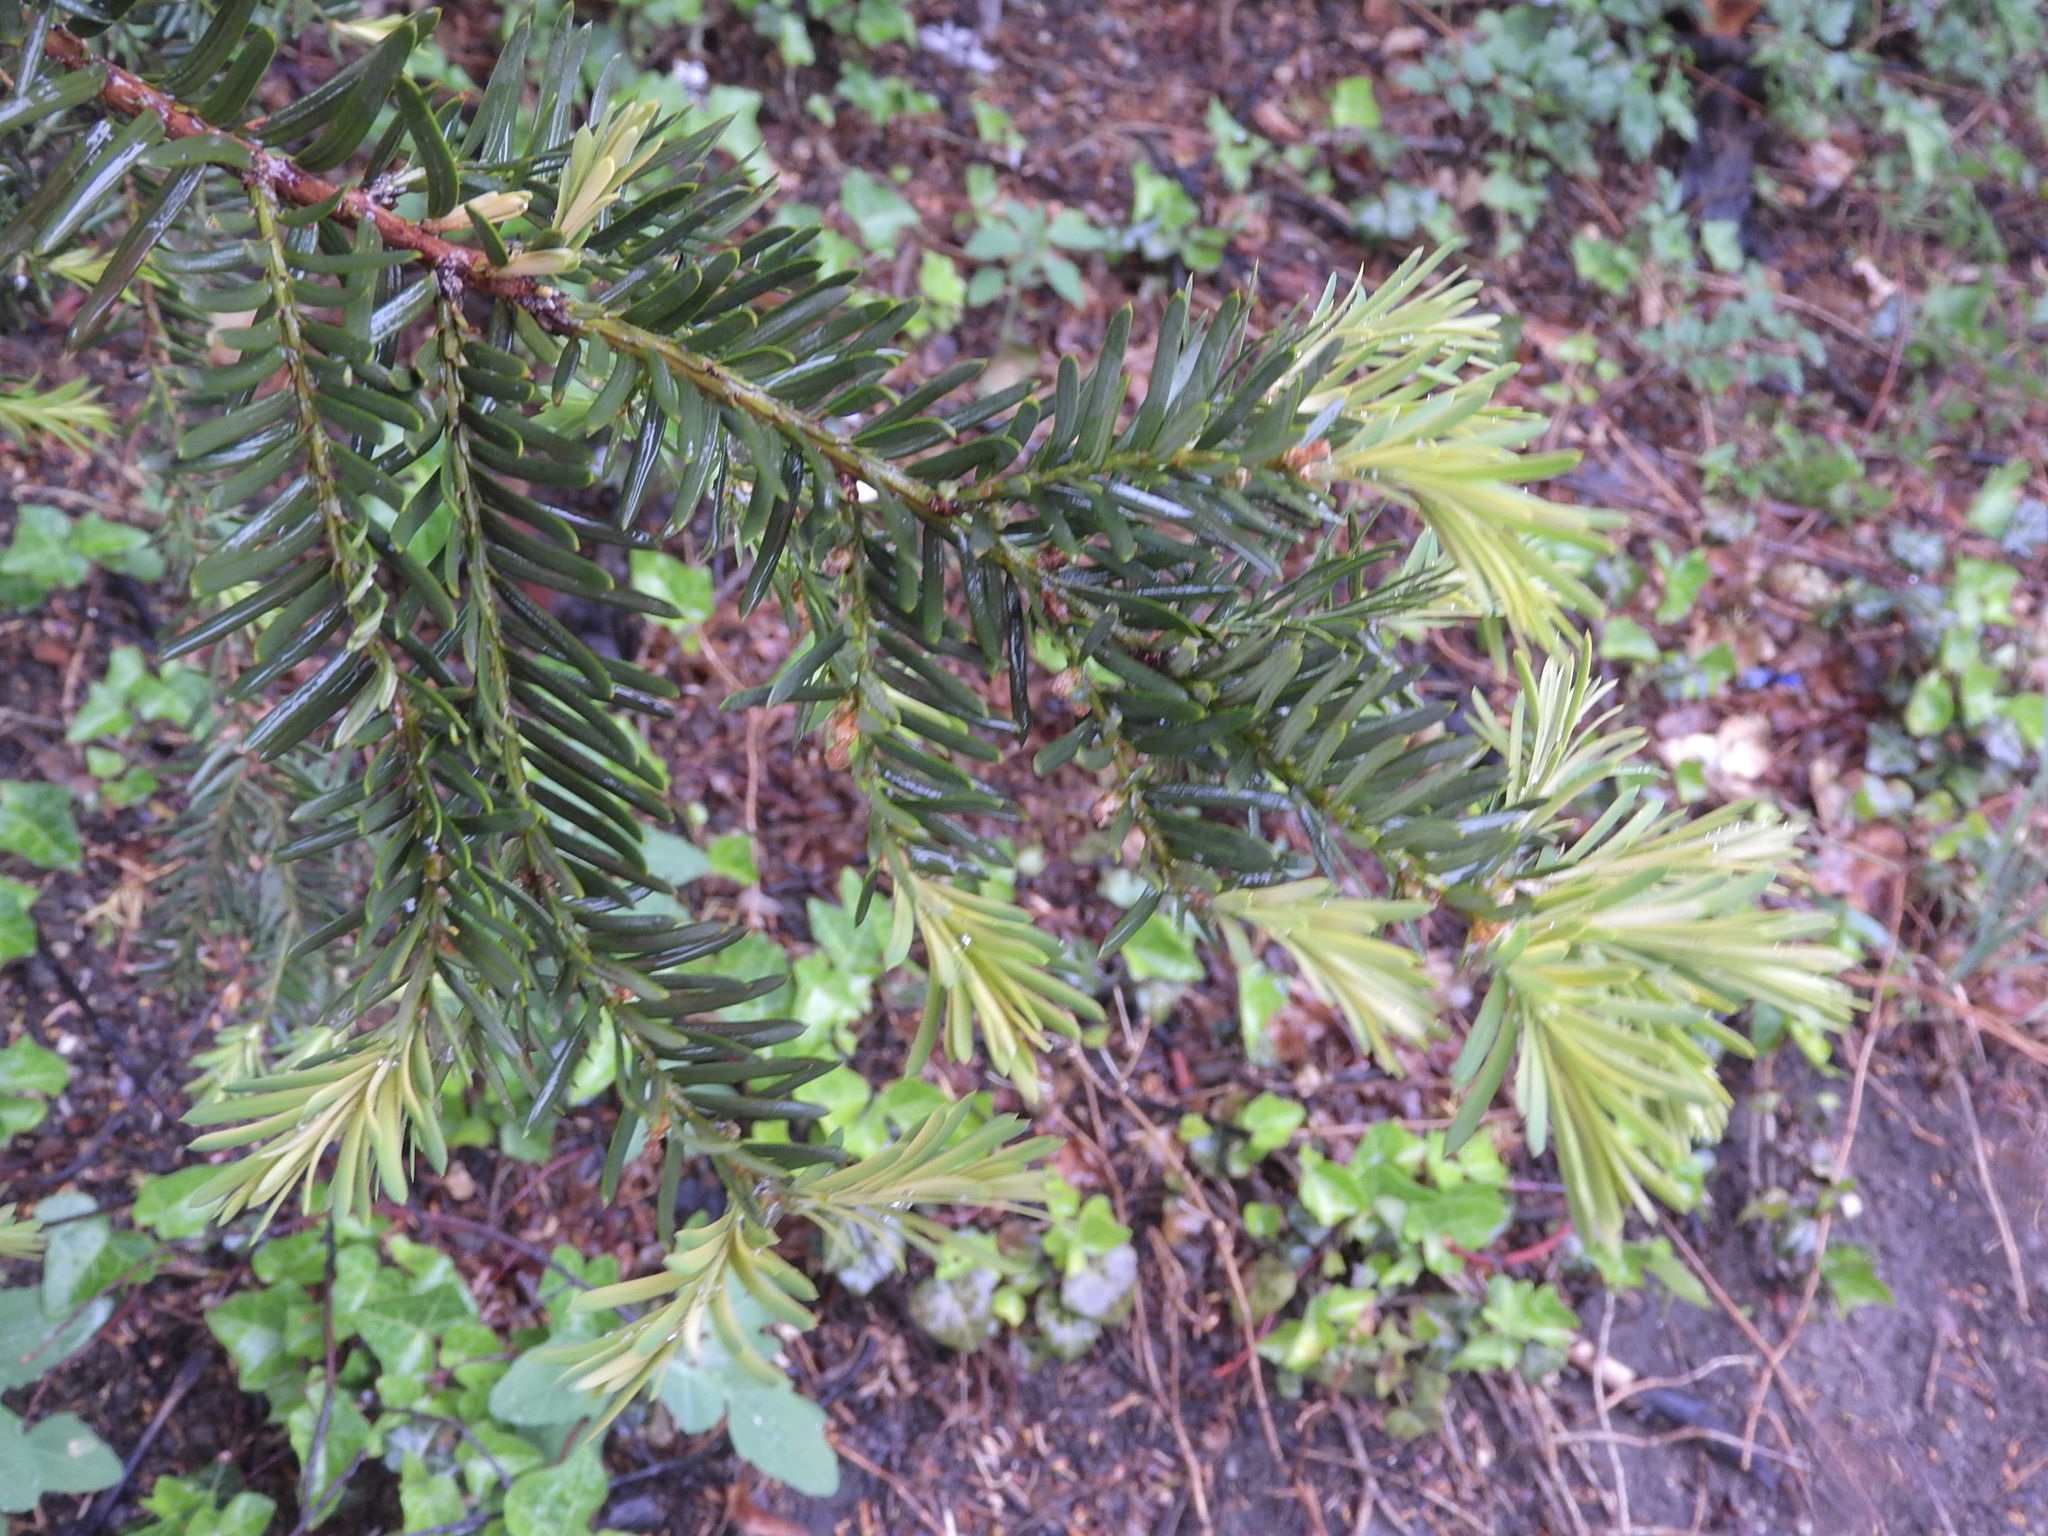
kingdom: Plantae
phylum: Tracheophyta
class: Pinopsida
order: Pinales
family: Taxaceae
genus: Taxus
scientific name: Taxus baccata
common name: Yew
